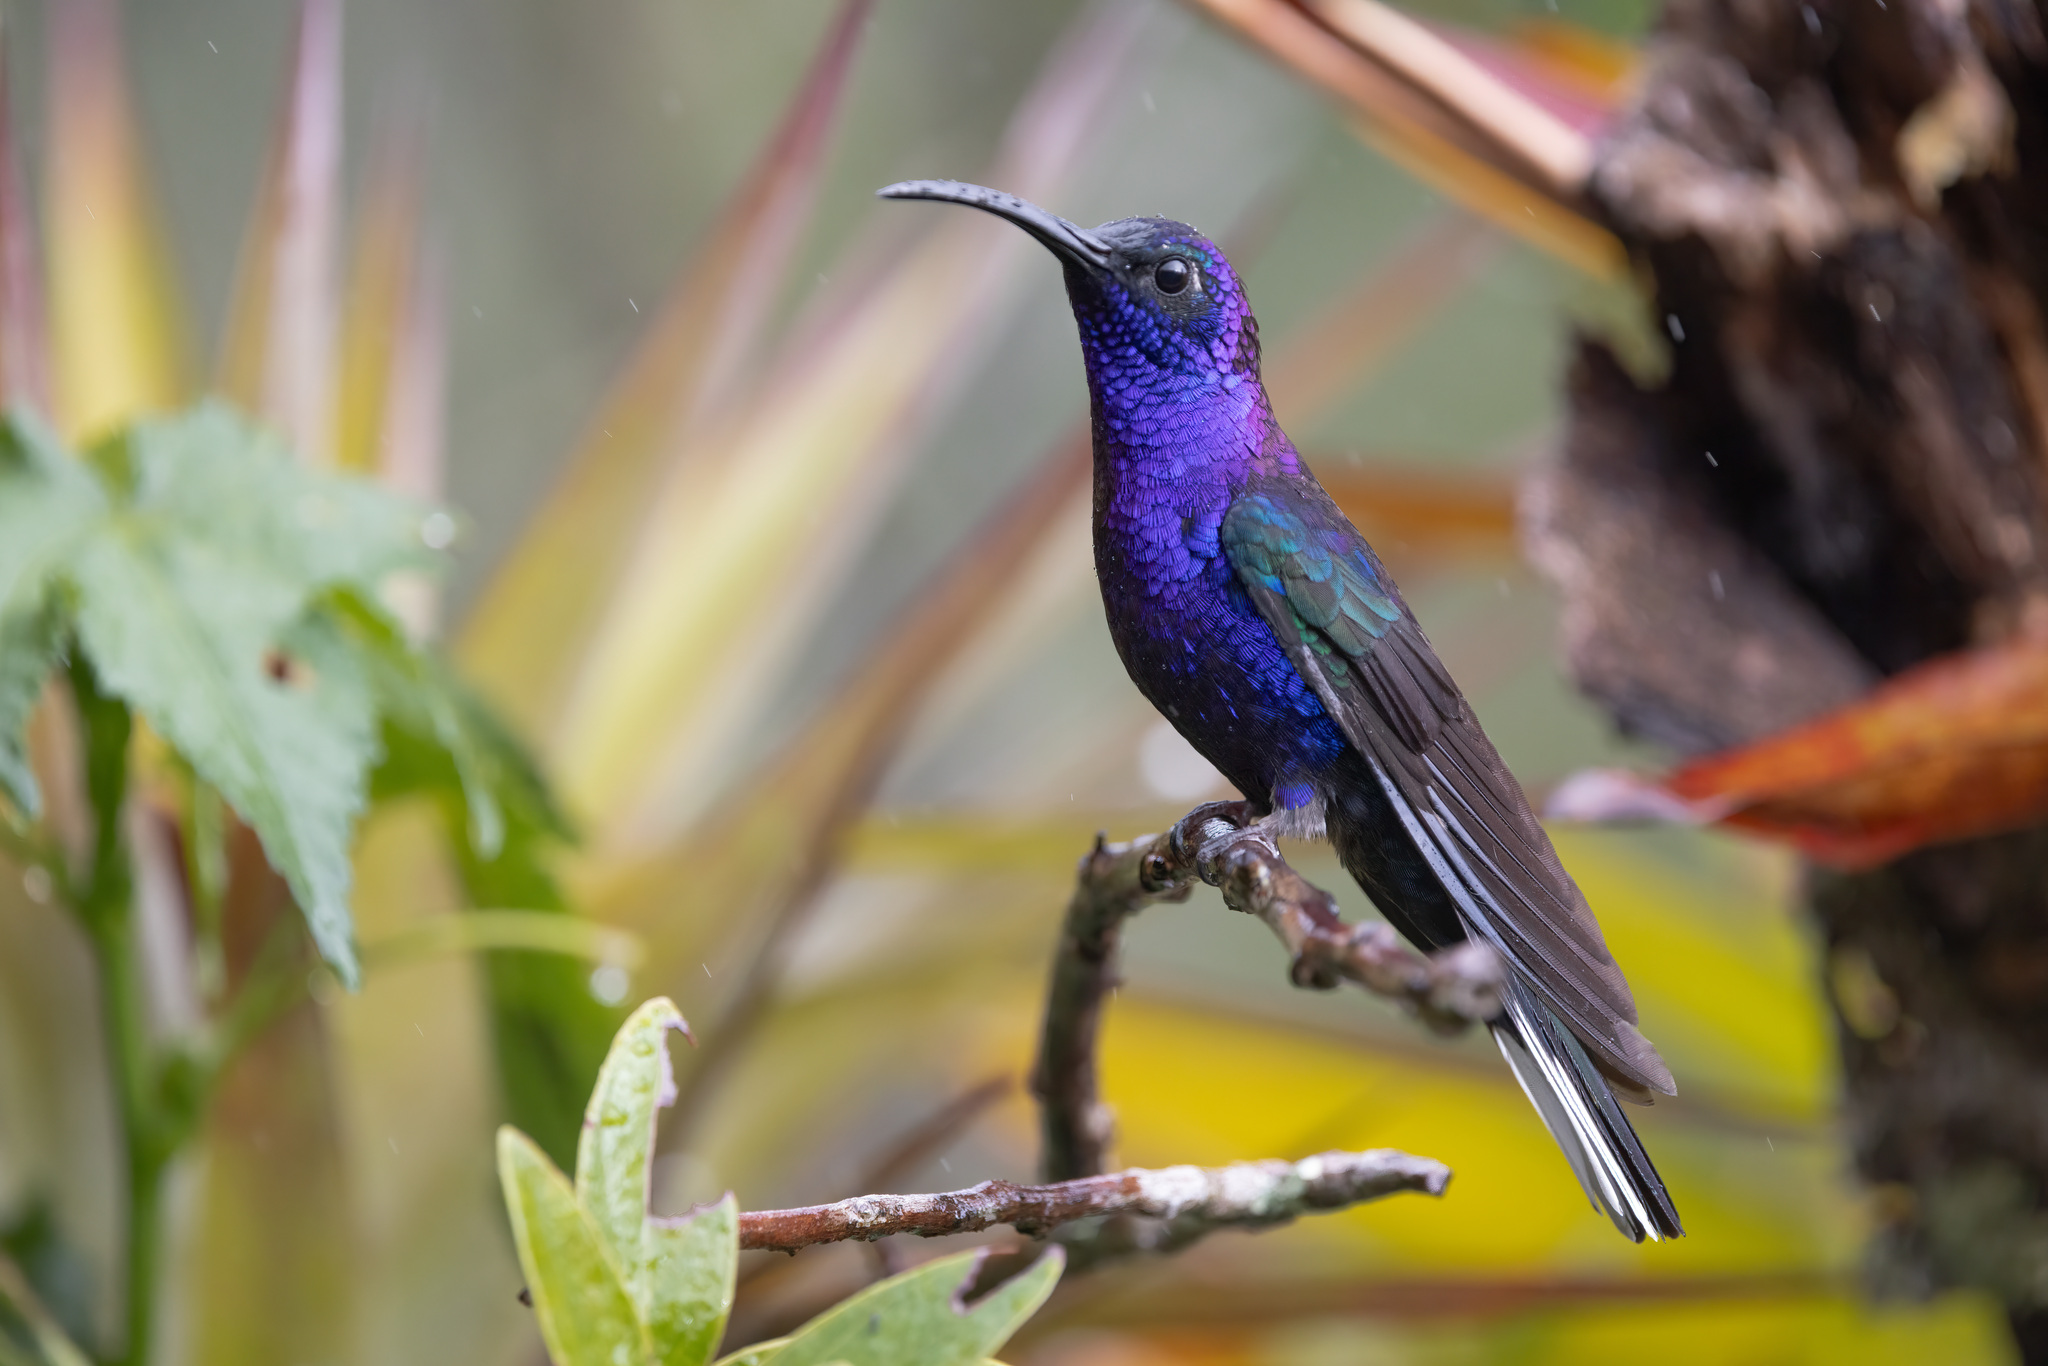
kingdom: Animalia
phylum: Chordata
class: Aves
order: Apodiformes
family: Trochilidae
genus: Campylopterus
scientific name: Campylopterus hemileucurus
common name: Violet sabrewing
